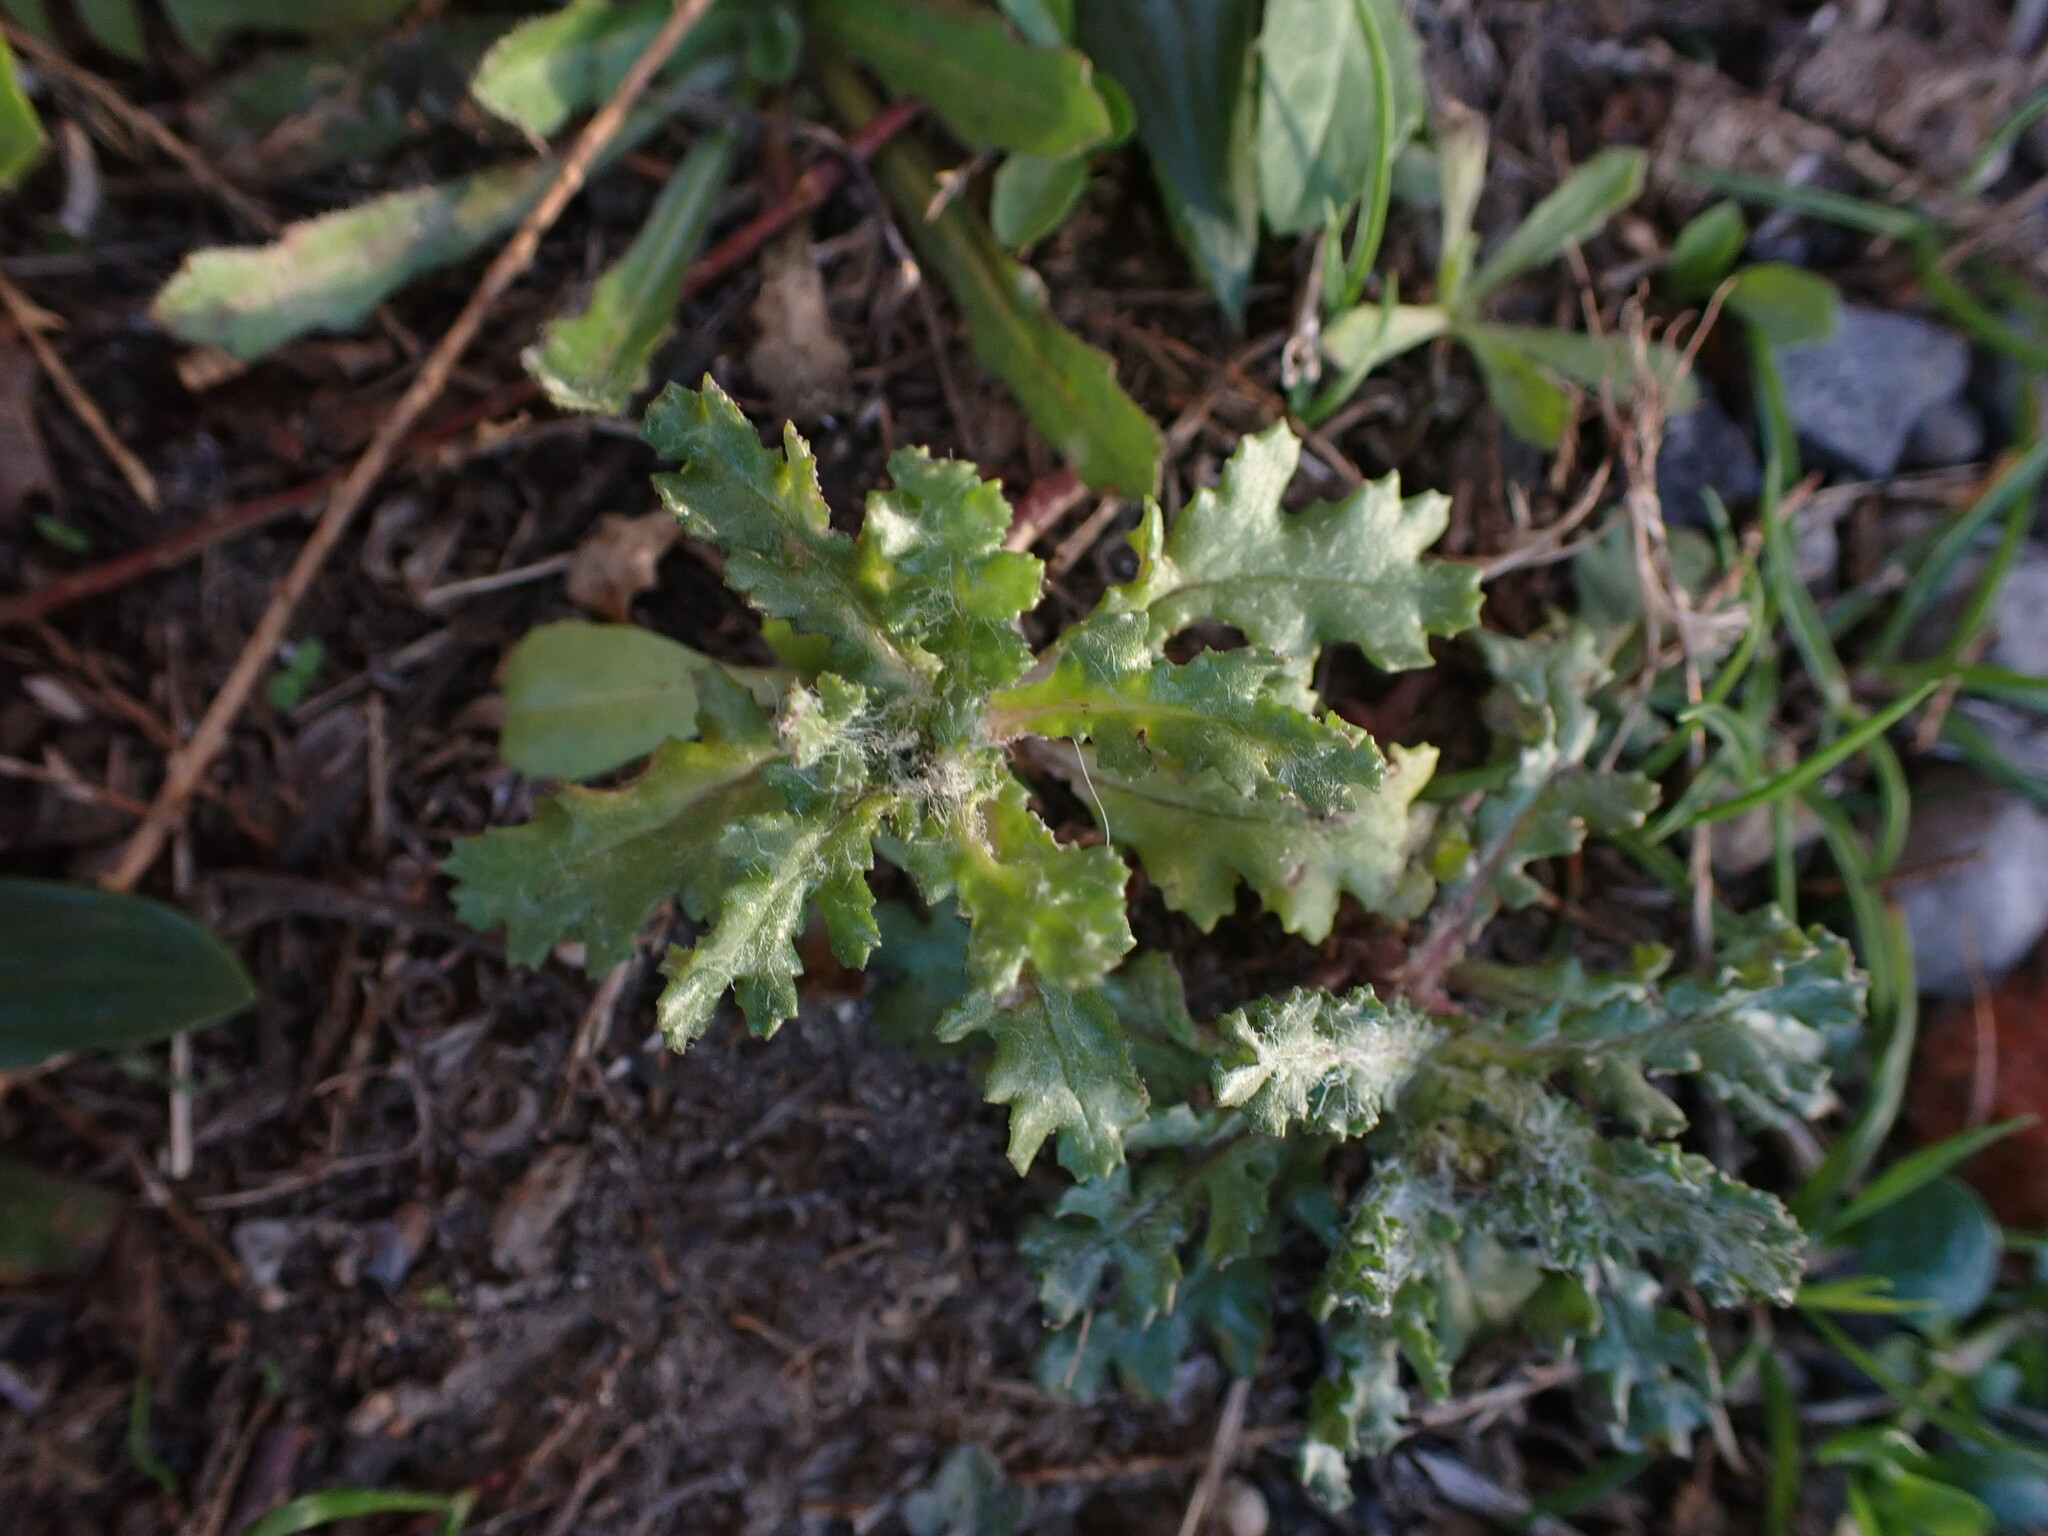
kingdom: Plantae
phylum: Tracheophyta
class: Magnoliopsida
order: Asterales
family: Asteraceae
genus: Senecio
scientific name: Senecio vulgaris
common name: Old-man-in-the-spring
